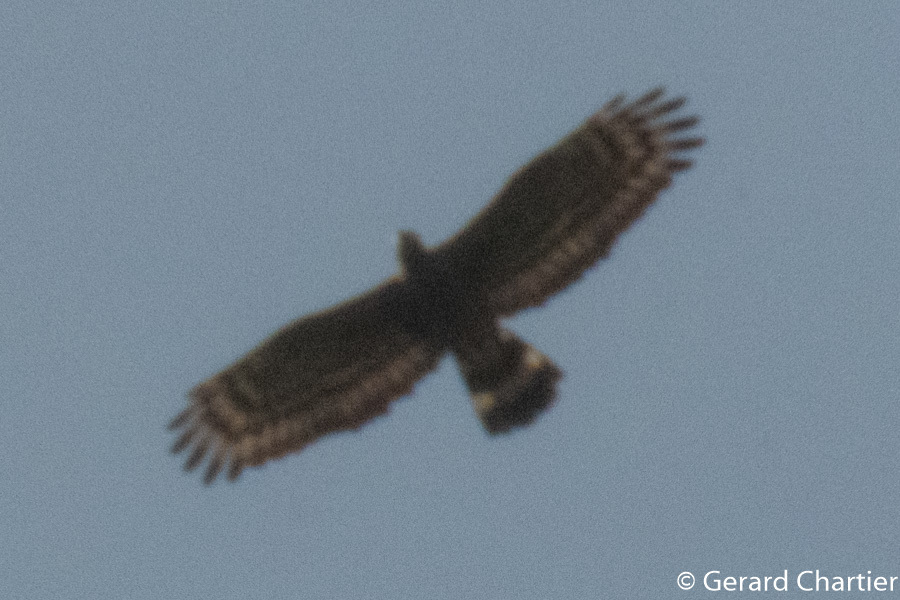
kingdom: Animalia
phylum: Chordata
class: Aves
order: Accipitriformes
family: Accipitridae
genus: Pernis
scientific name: Pernis ptilorhynchus
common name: Crested honey buzzard
